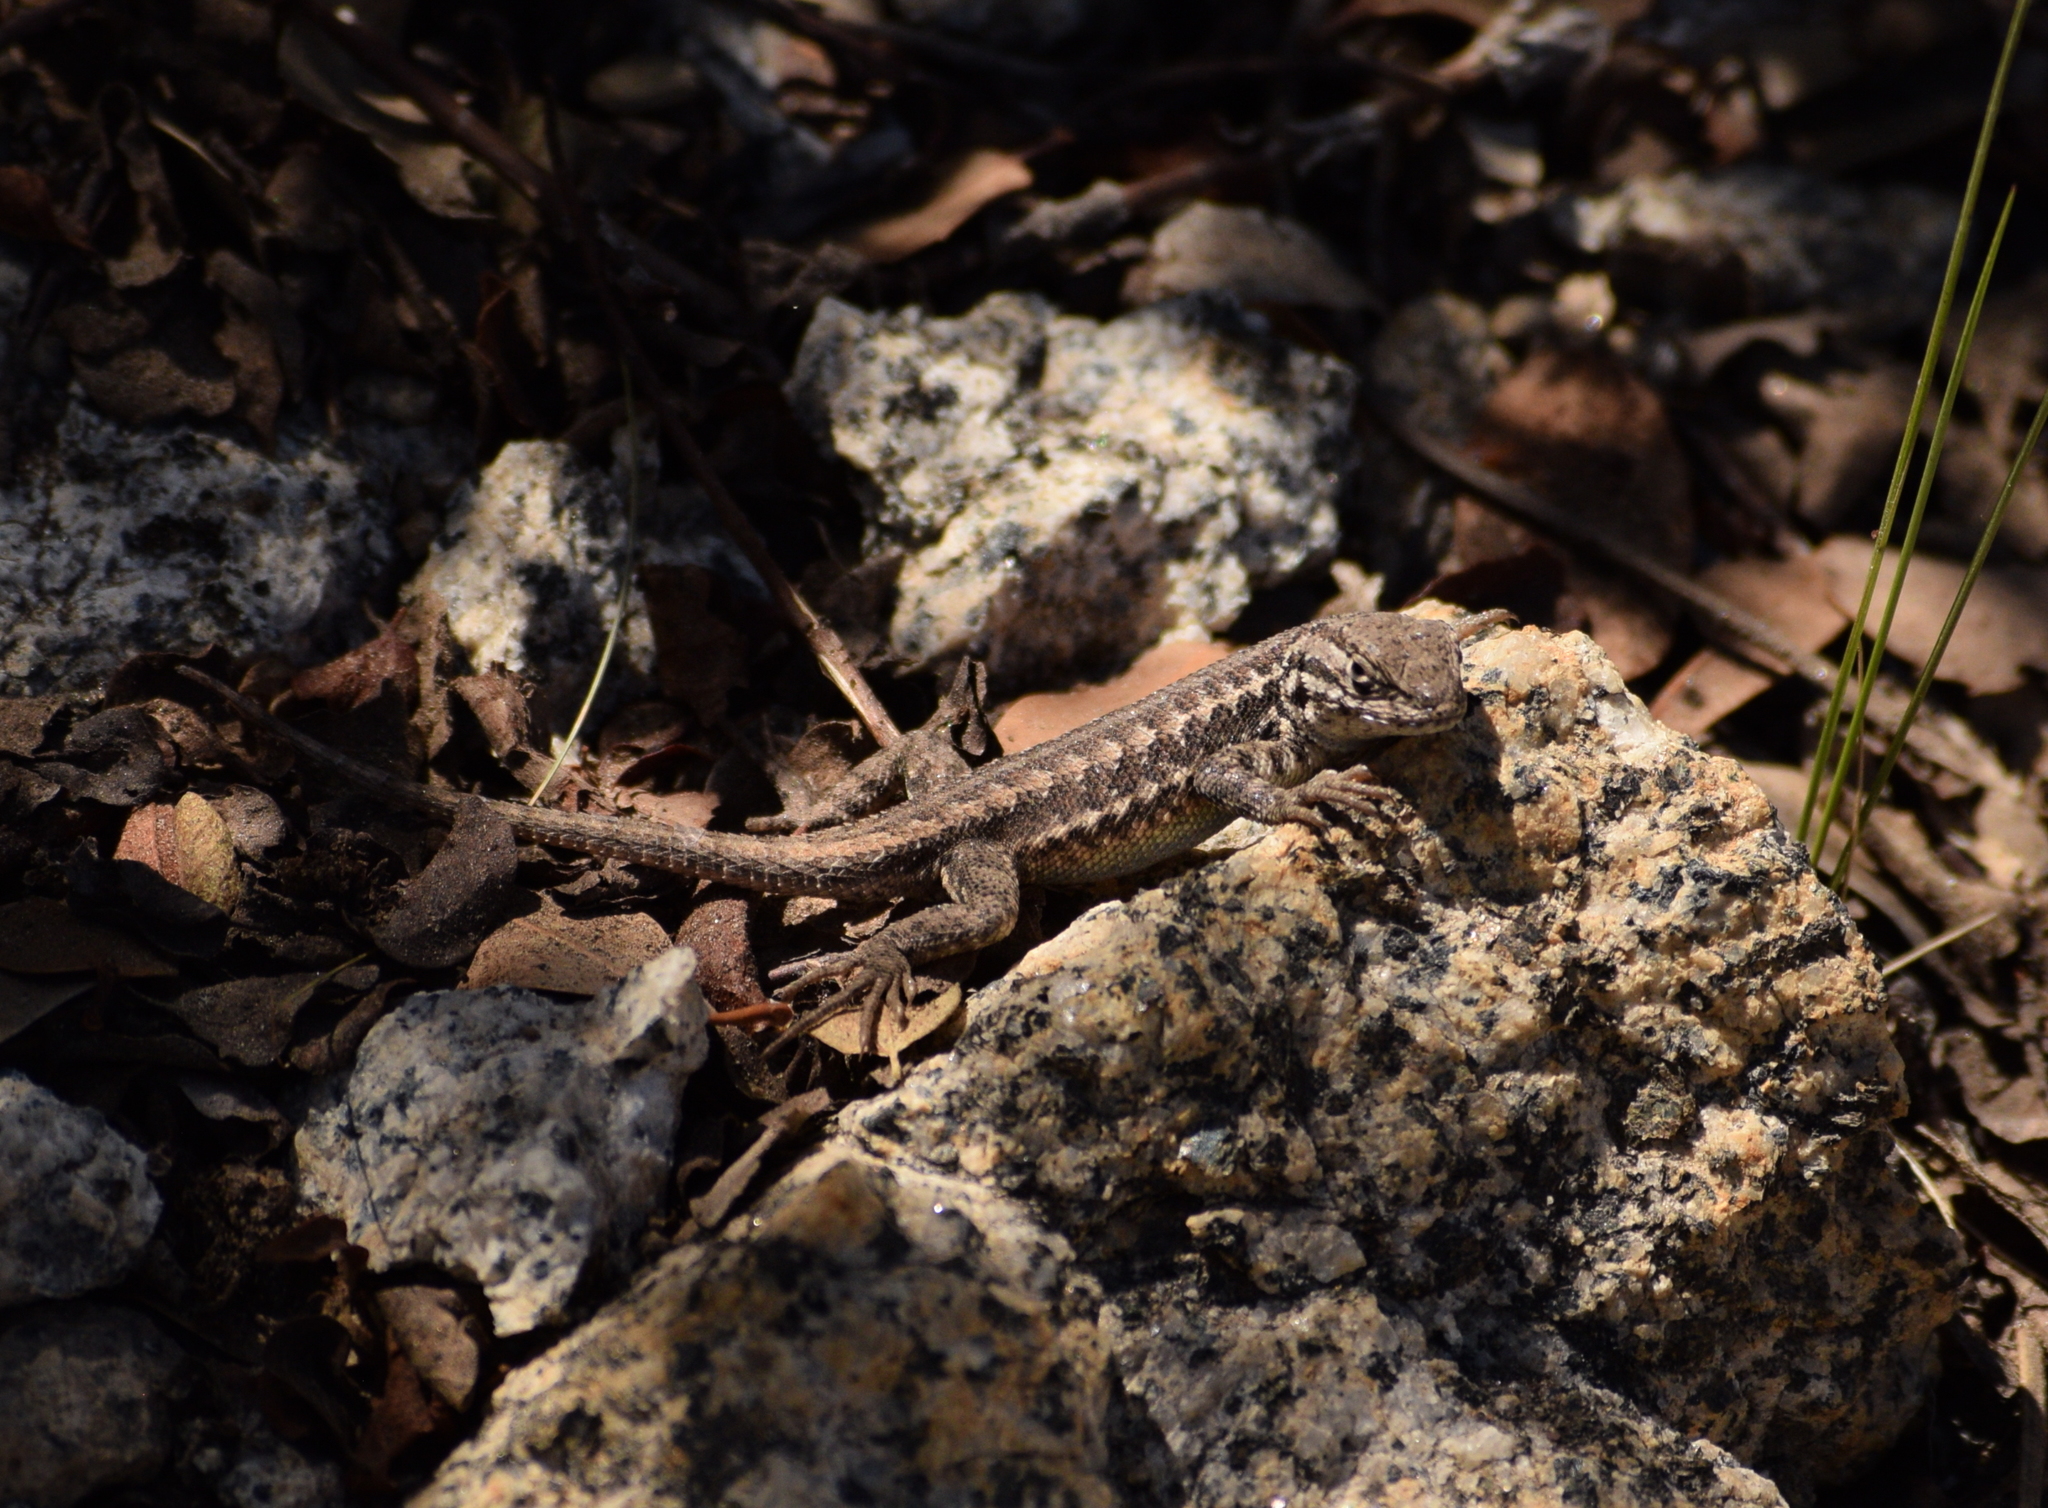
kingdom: Animalia
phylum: Chordata
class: Squamata
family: Phrynosomatidae
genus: Sceloporus
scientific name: Sceloporus graciosus
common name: Sagebrush lizard
